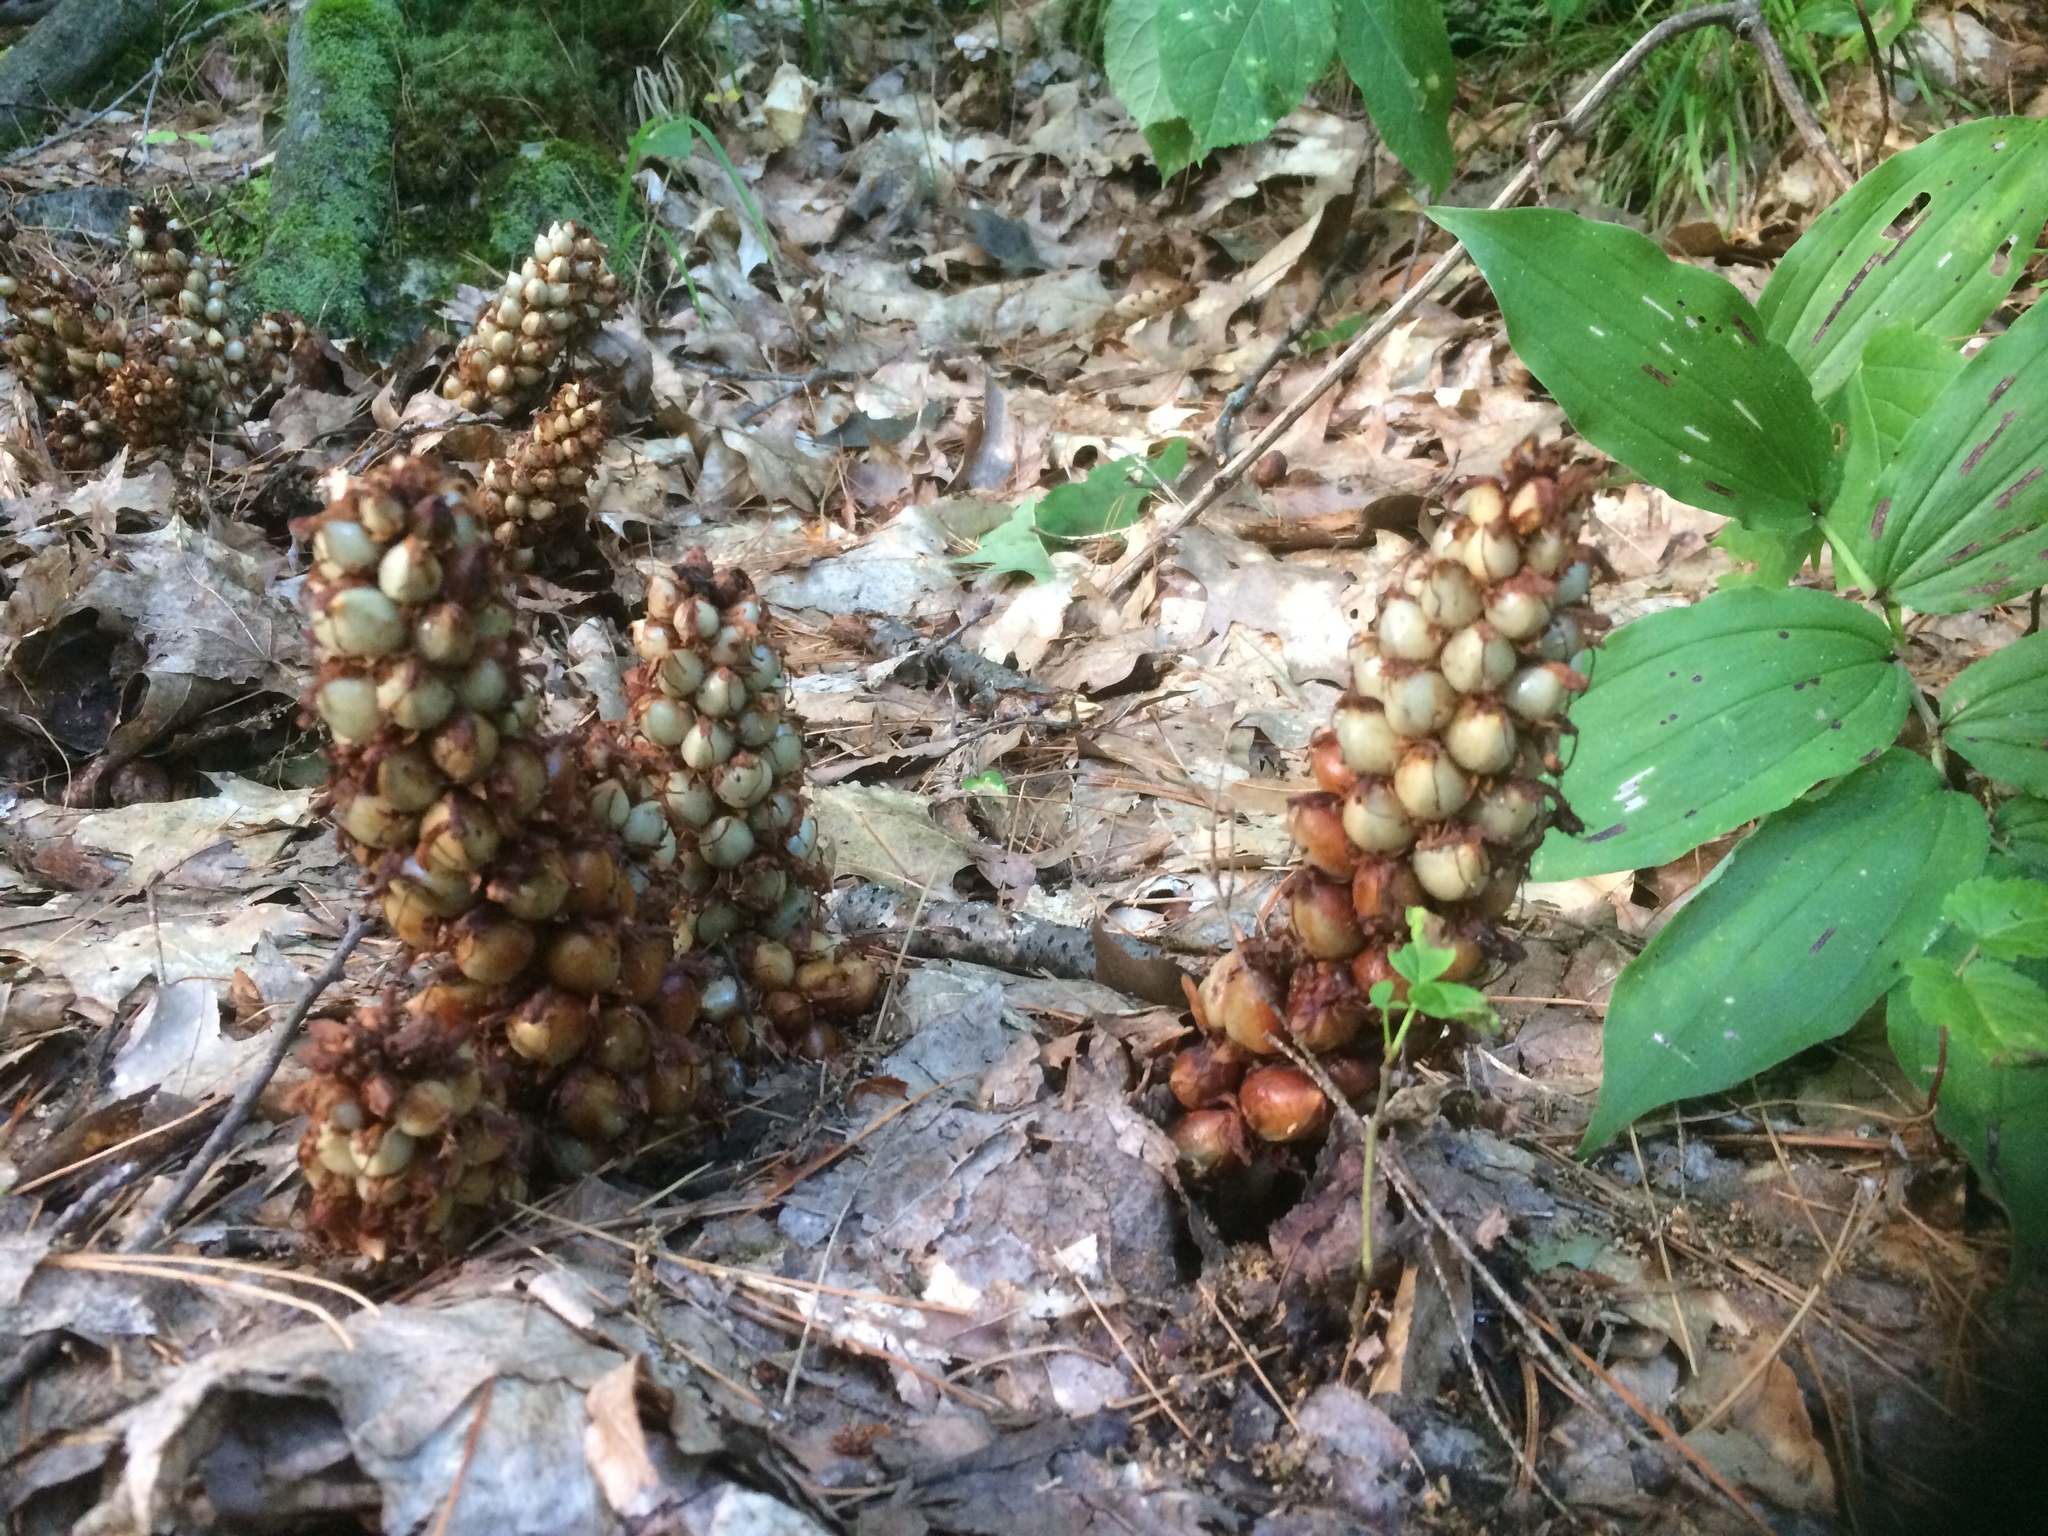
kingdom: Plantae
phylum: Tracheophyta
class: Magnoliopsida
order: Lamiales
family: Orobanchaceae
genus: Conopholis
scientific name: Conopholis americana
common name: American cancer-root
